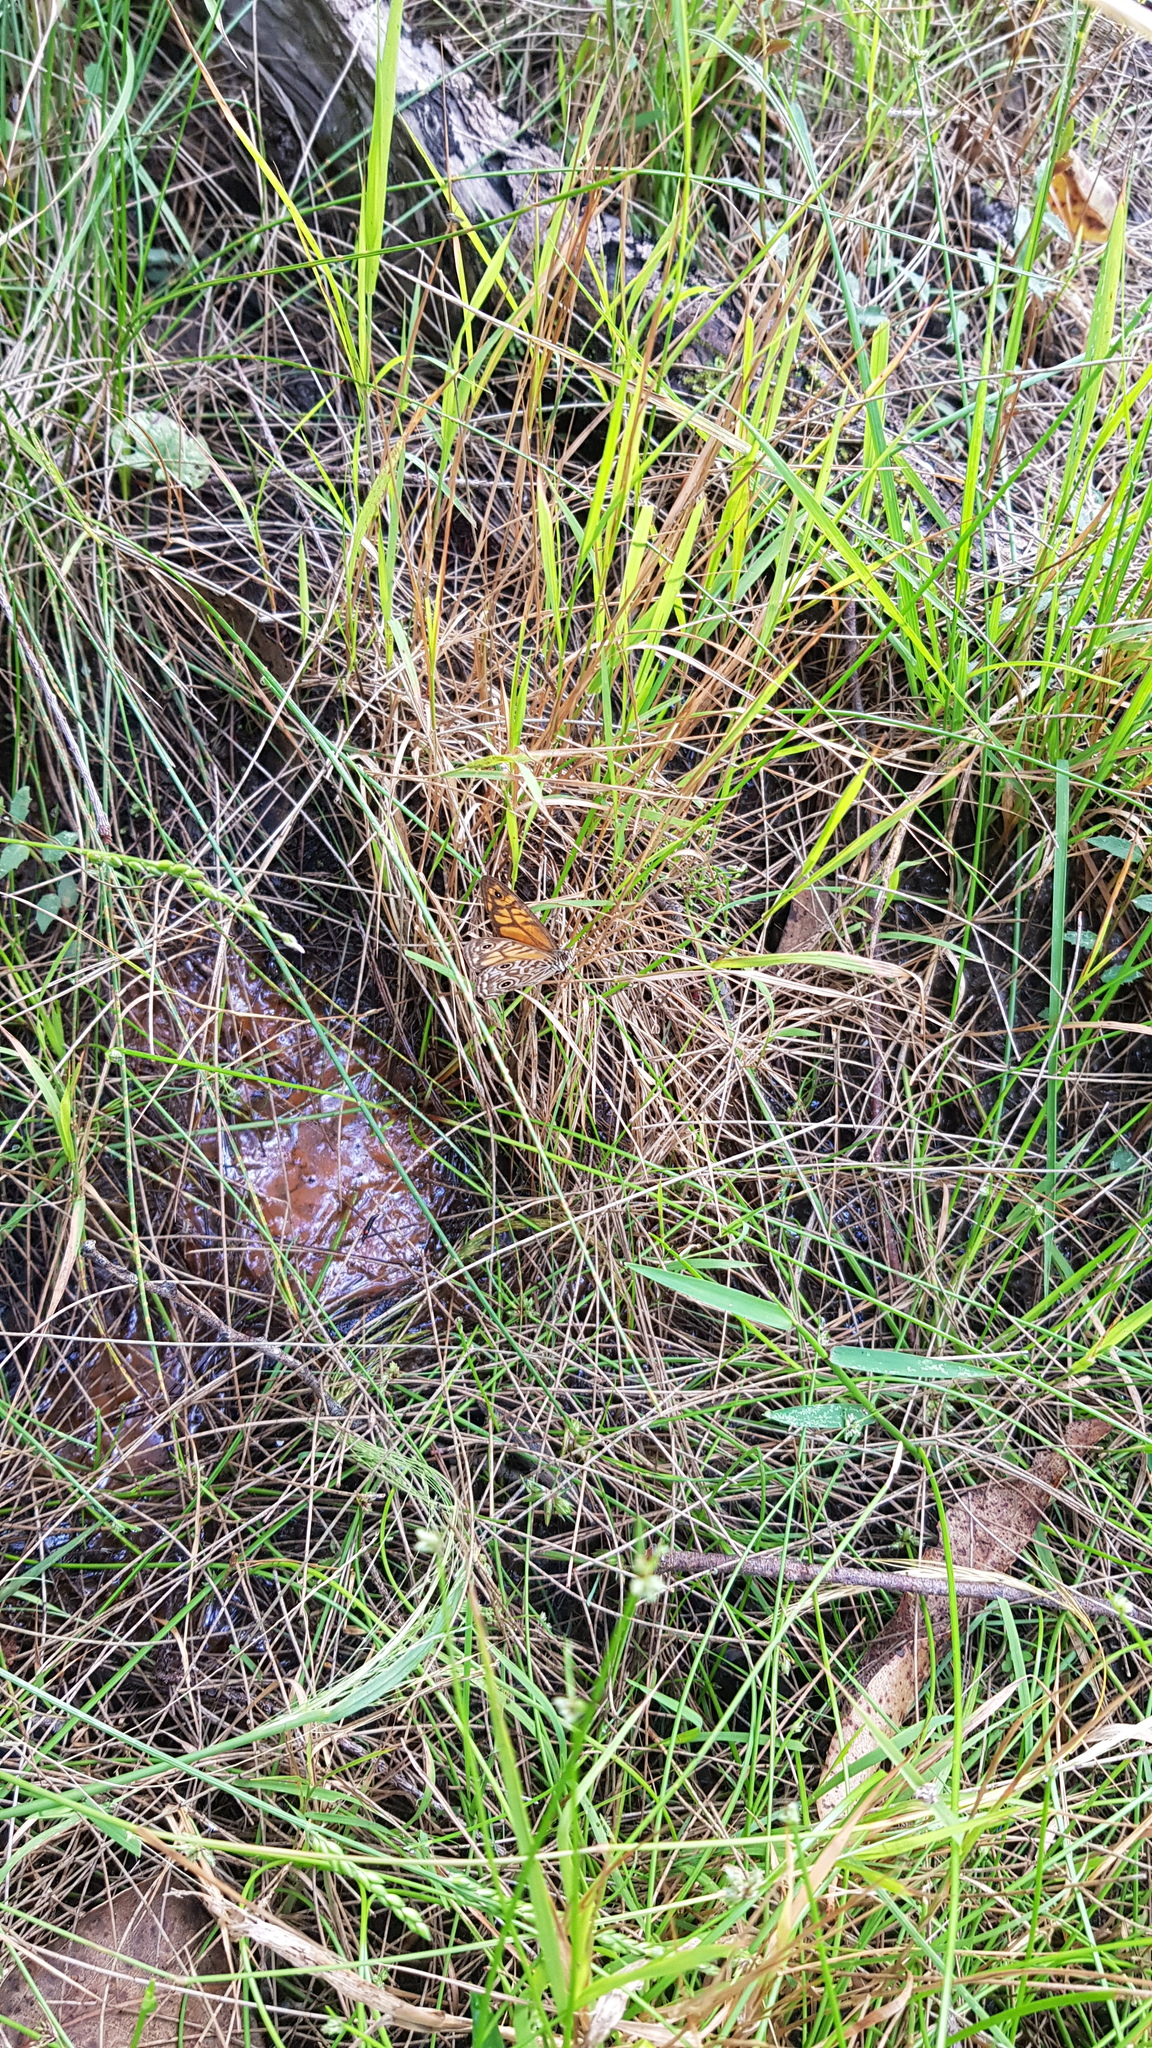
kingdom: Animalia
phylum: Arthropoda
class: Insecta
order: Lepidoptera
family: Nymphalidae
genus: Geitoneura
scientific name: Geitoneura acantha
